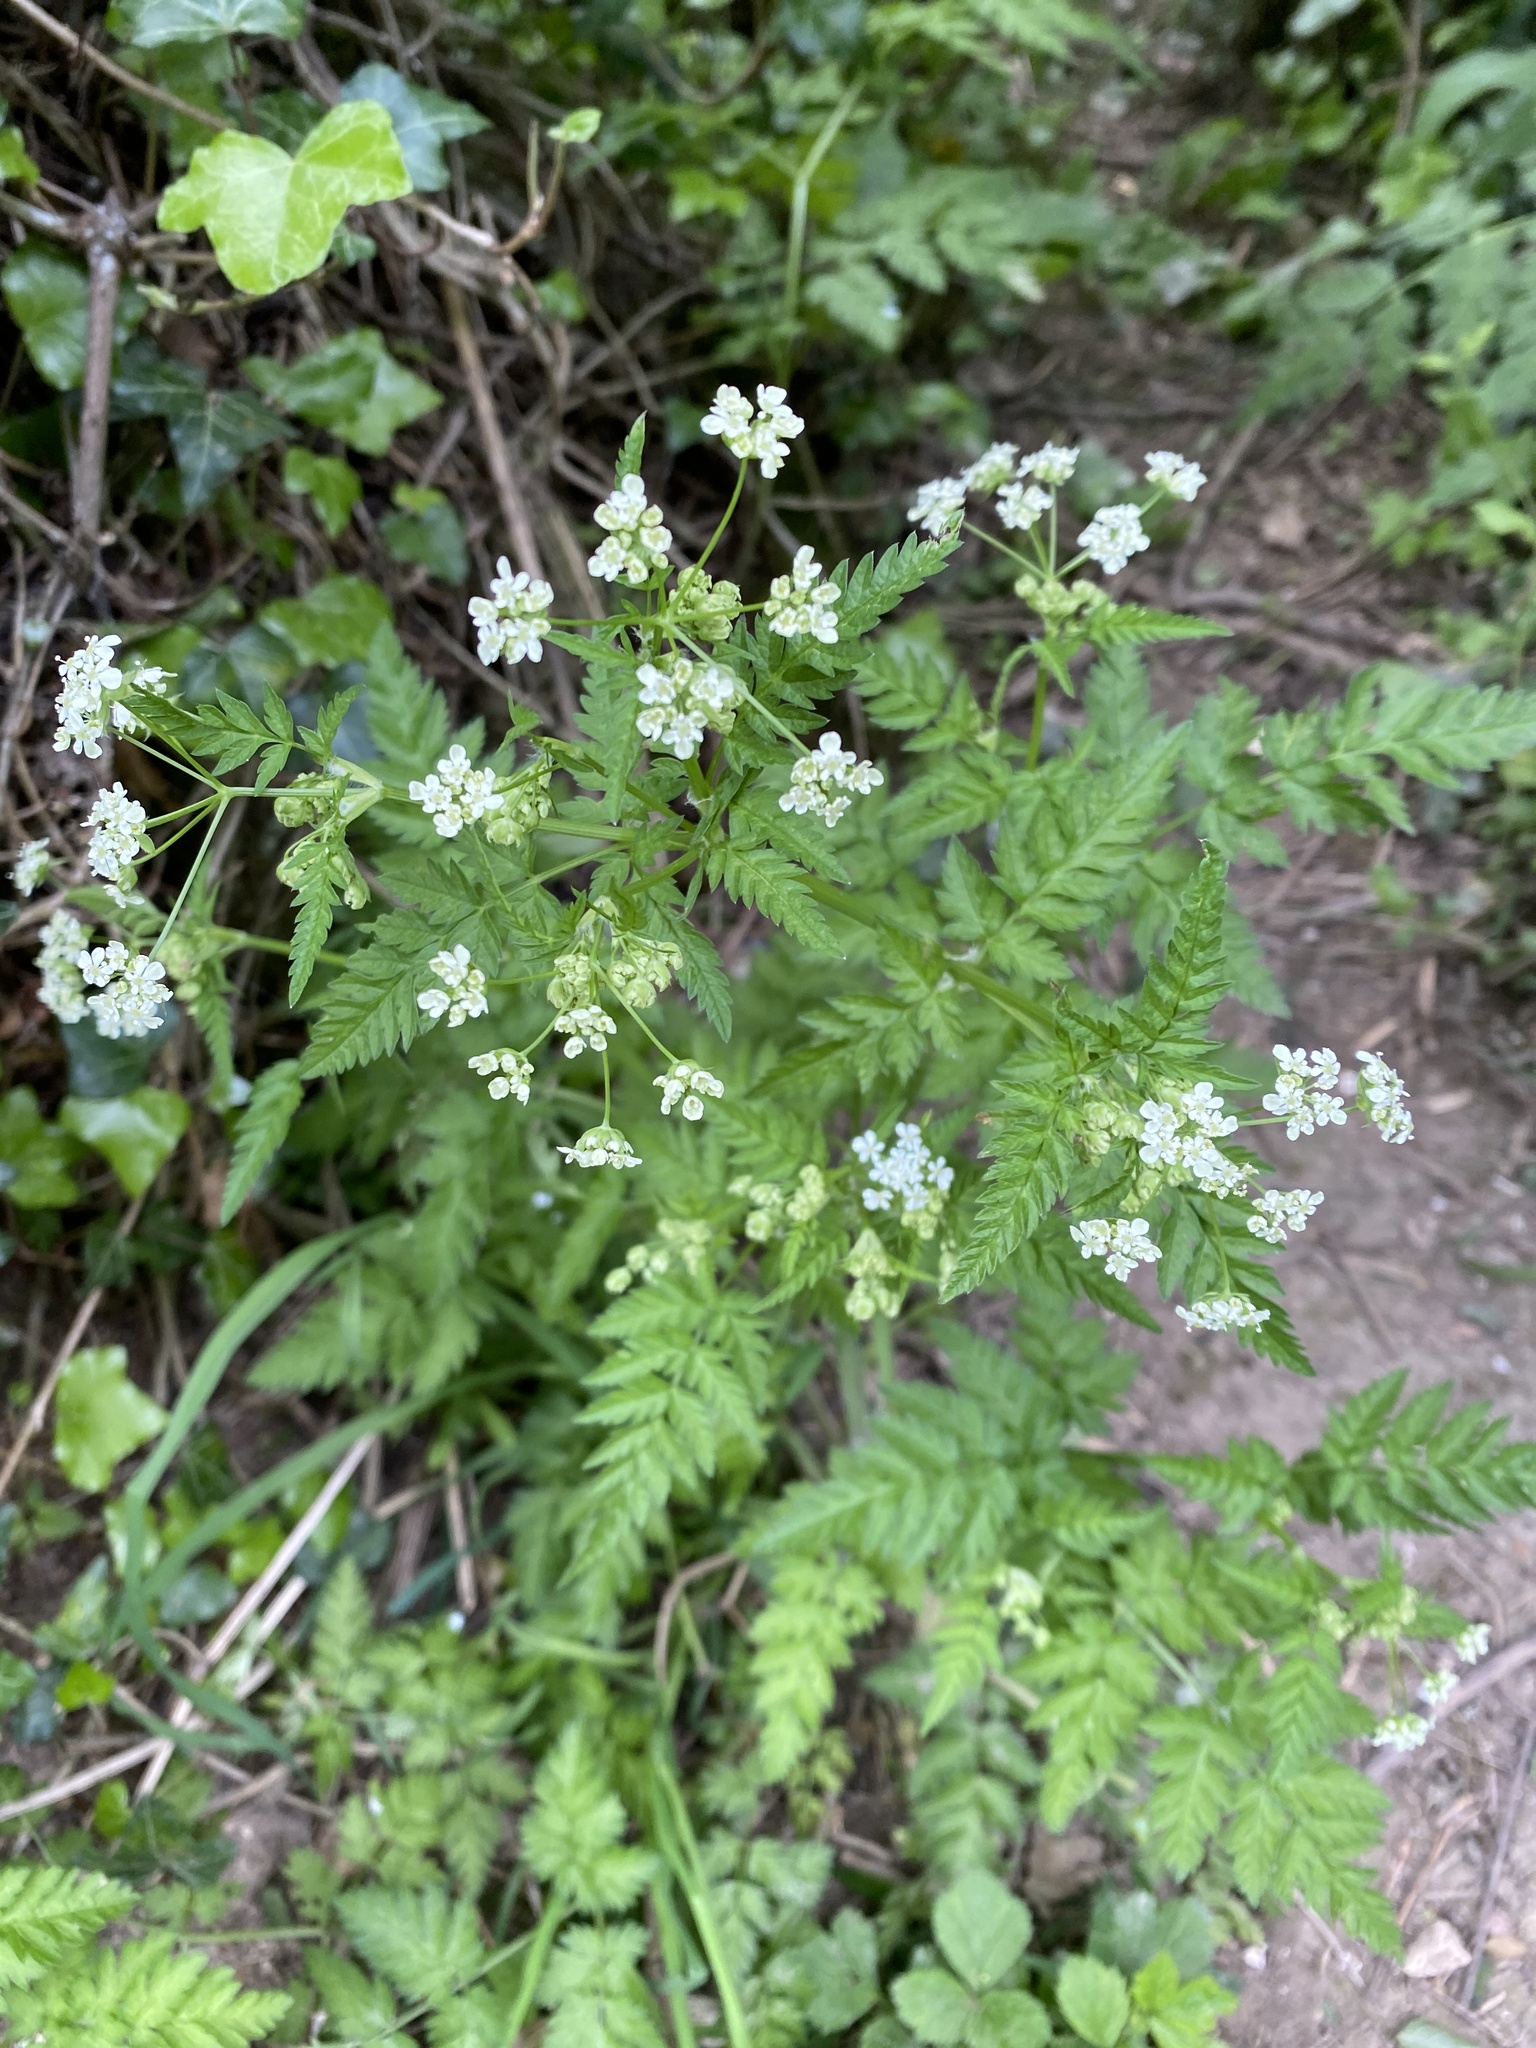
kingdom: Plantae
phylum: Tracheophyta
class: Magnoliopsida
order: Apiales
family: Apiaceae
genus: Anthriscus
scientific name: Anthriscus sylvestris
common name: Cow parsley
